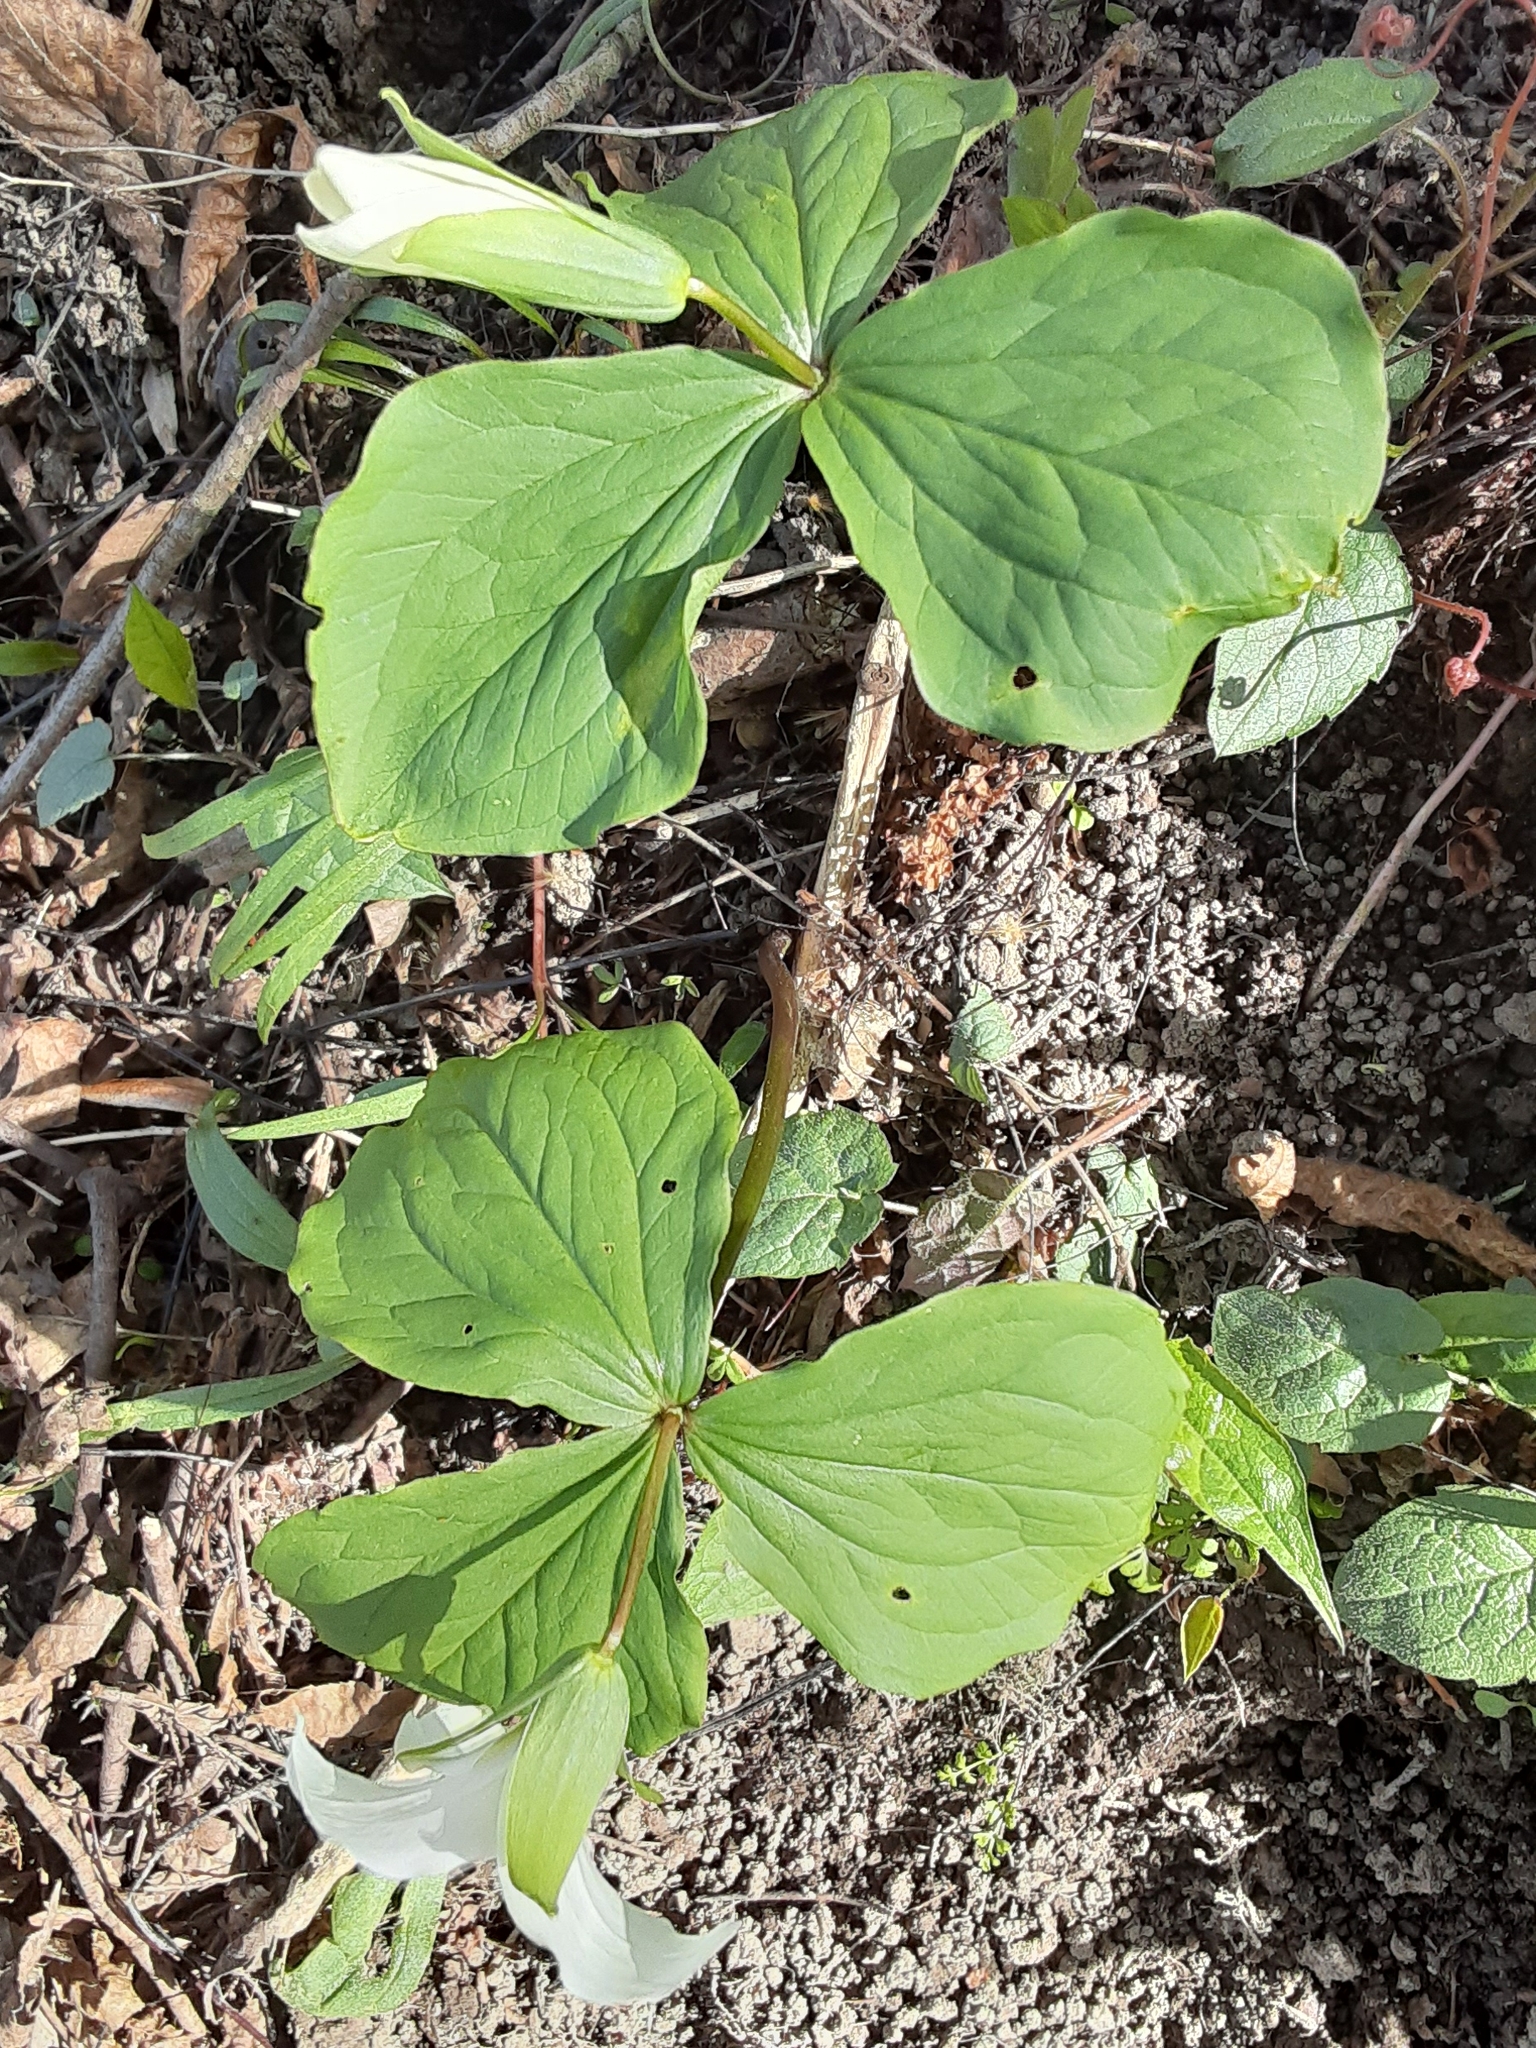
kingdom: Plantae
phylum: Tracheophyta
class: Liliopsida
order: Liliales
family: Melanthiaceae
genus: Trillium
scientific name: Trillium grandiflorum
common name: Great white trillium
